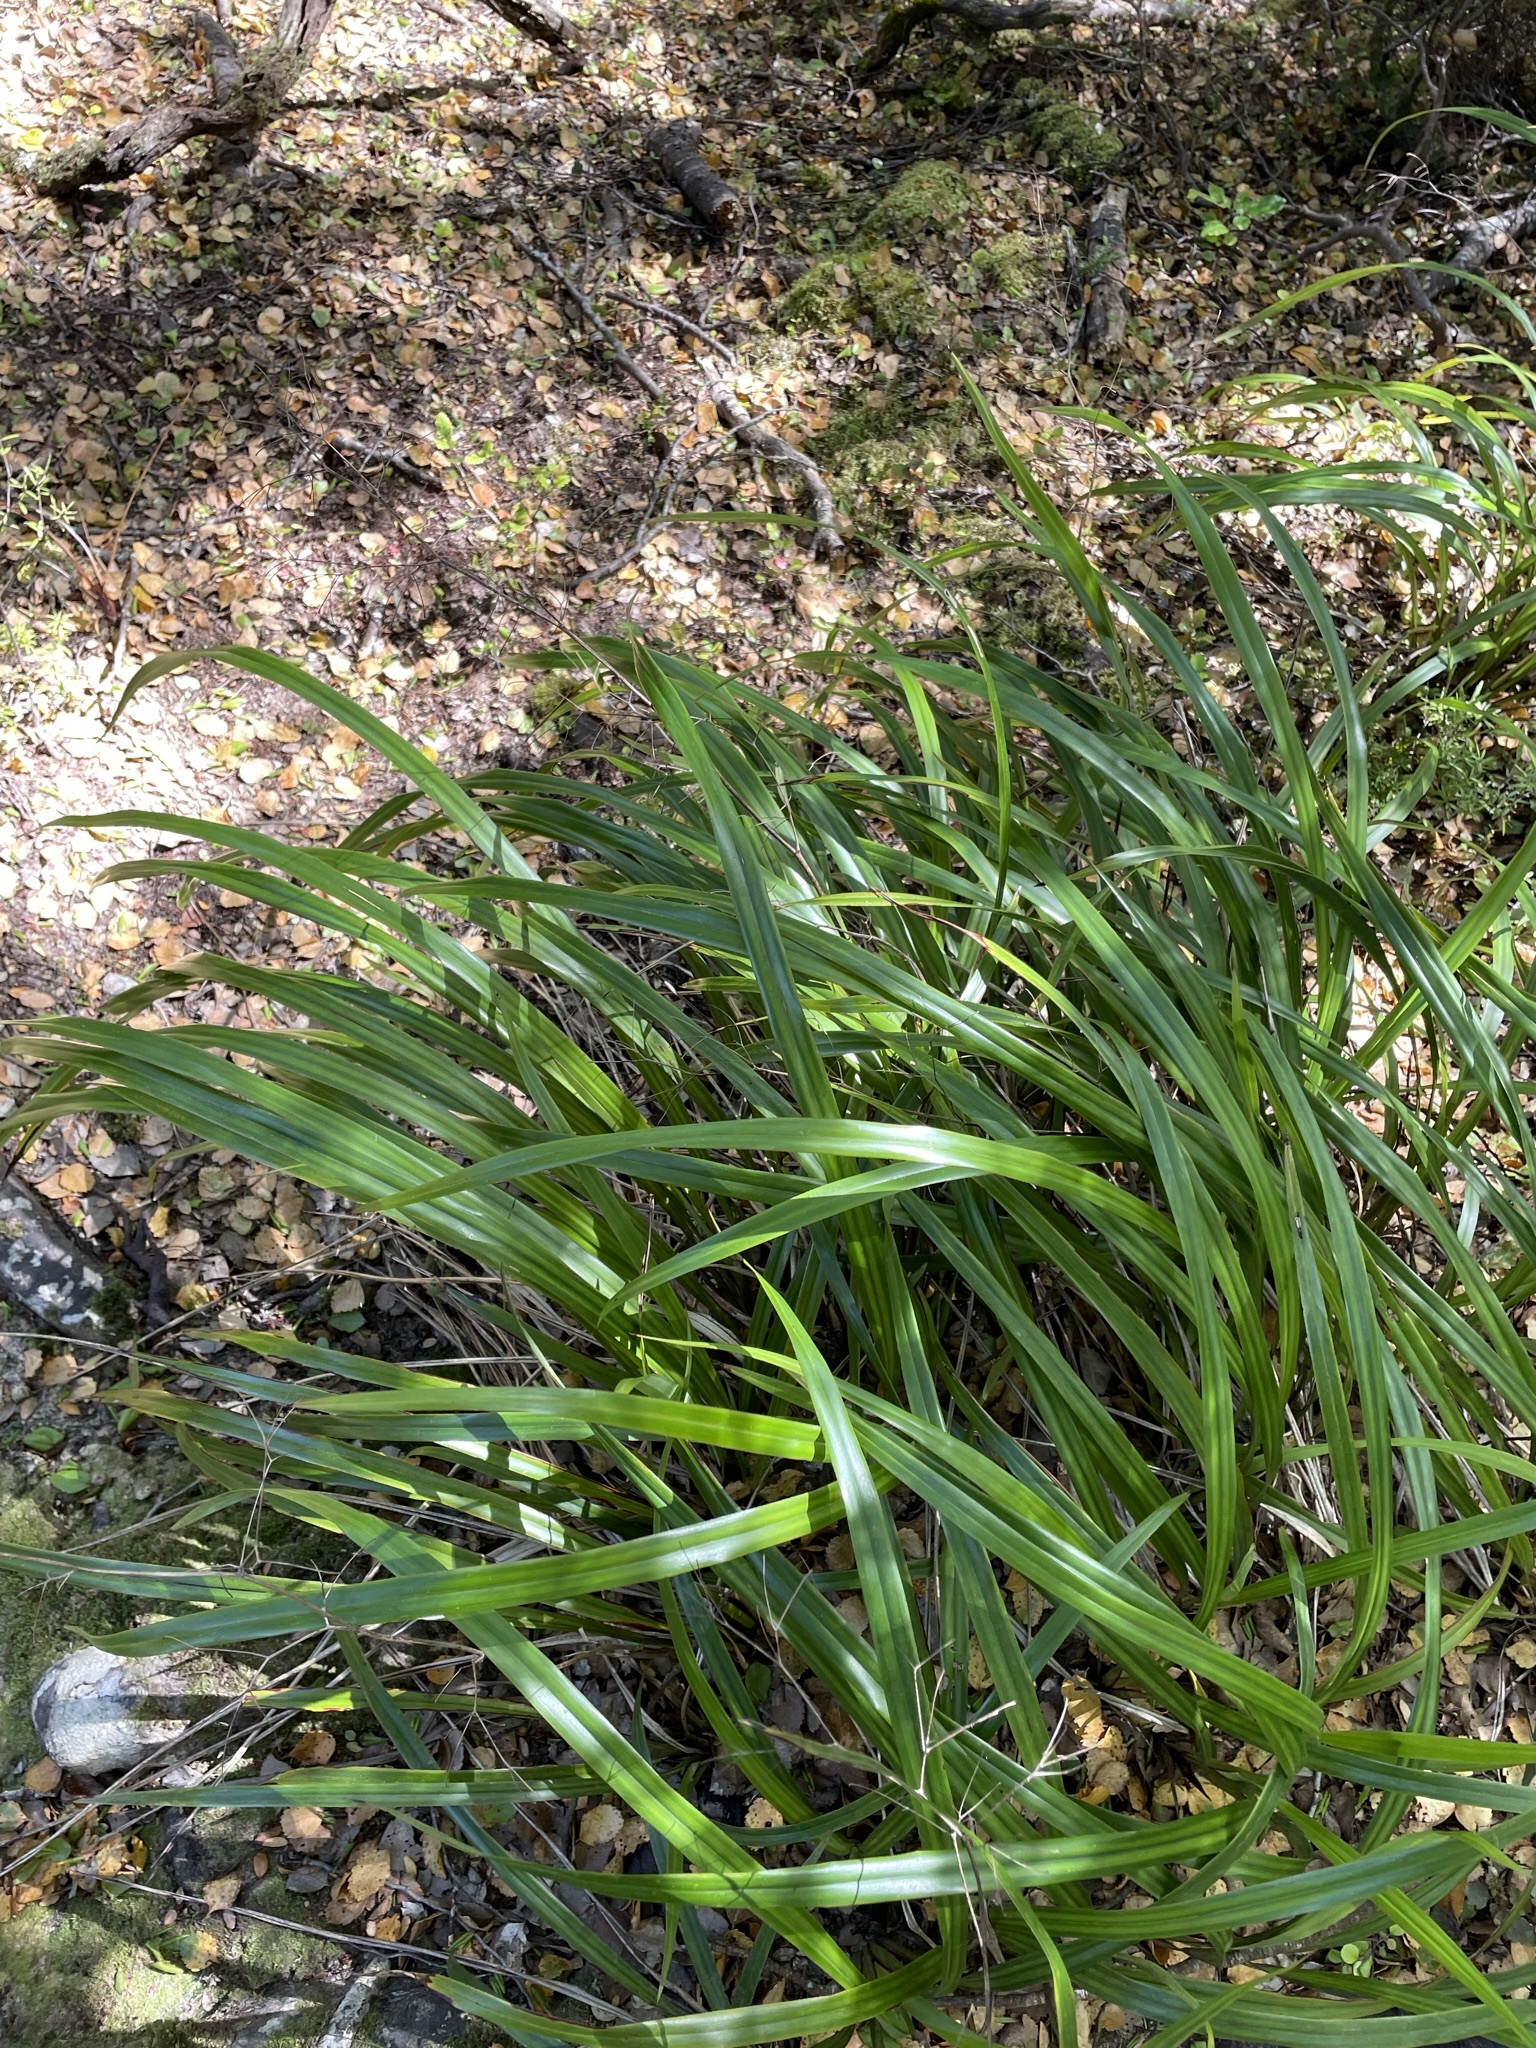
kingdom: Plantae
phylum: Tracheophyta
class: Liliopsida
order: Asparagales
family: Asphodelaceae
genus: Dianella
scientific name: Dianella nigra
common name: New zealand-blueberry
